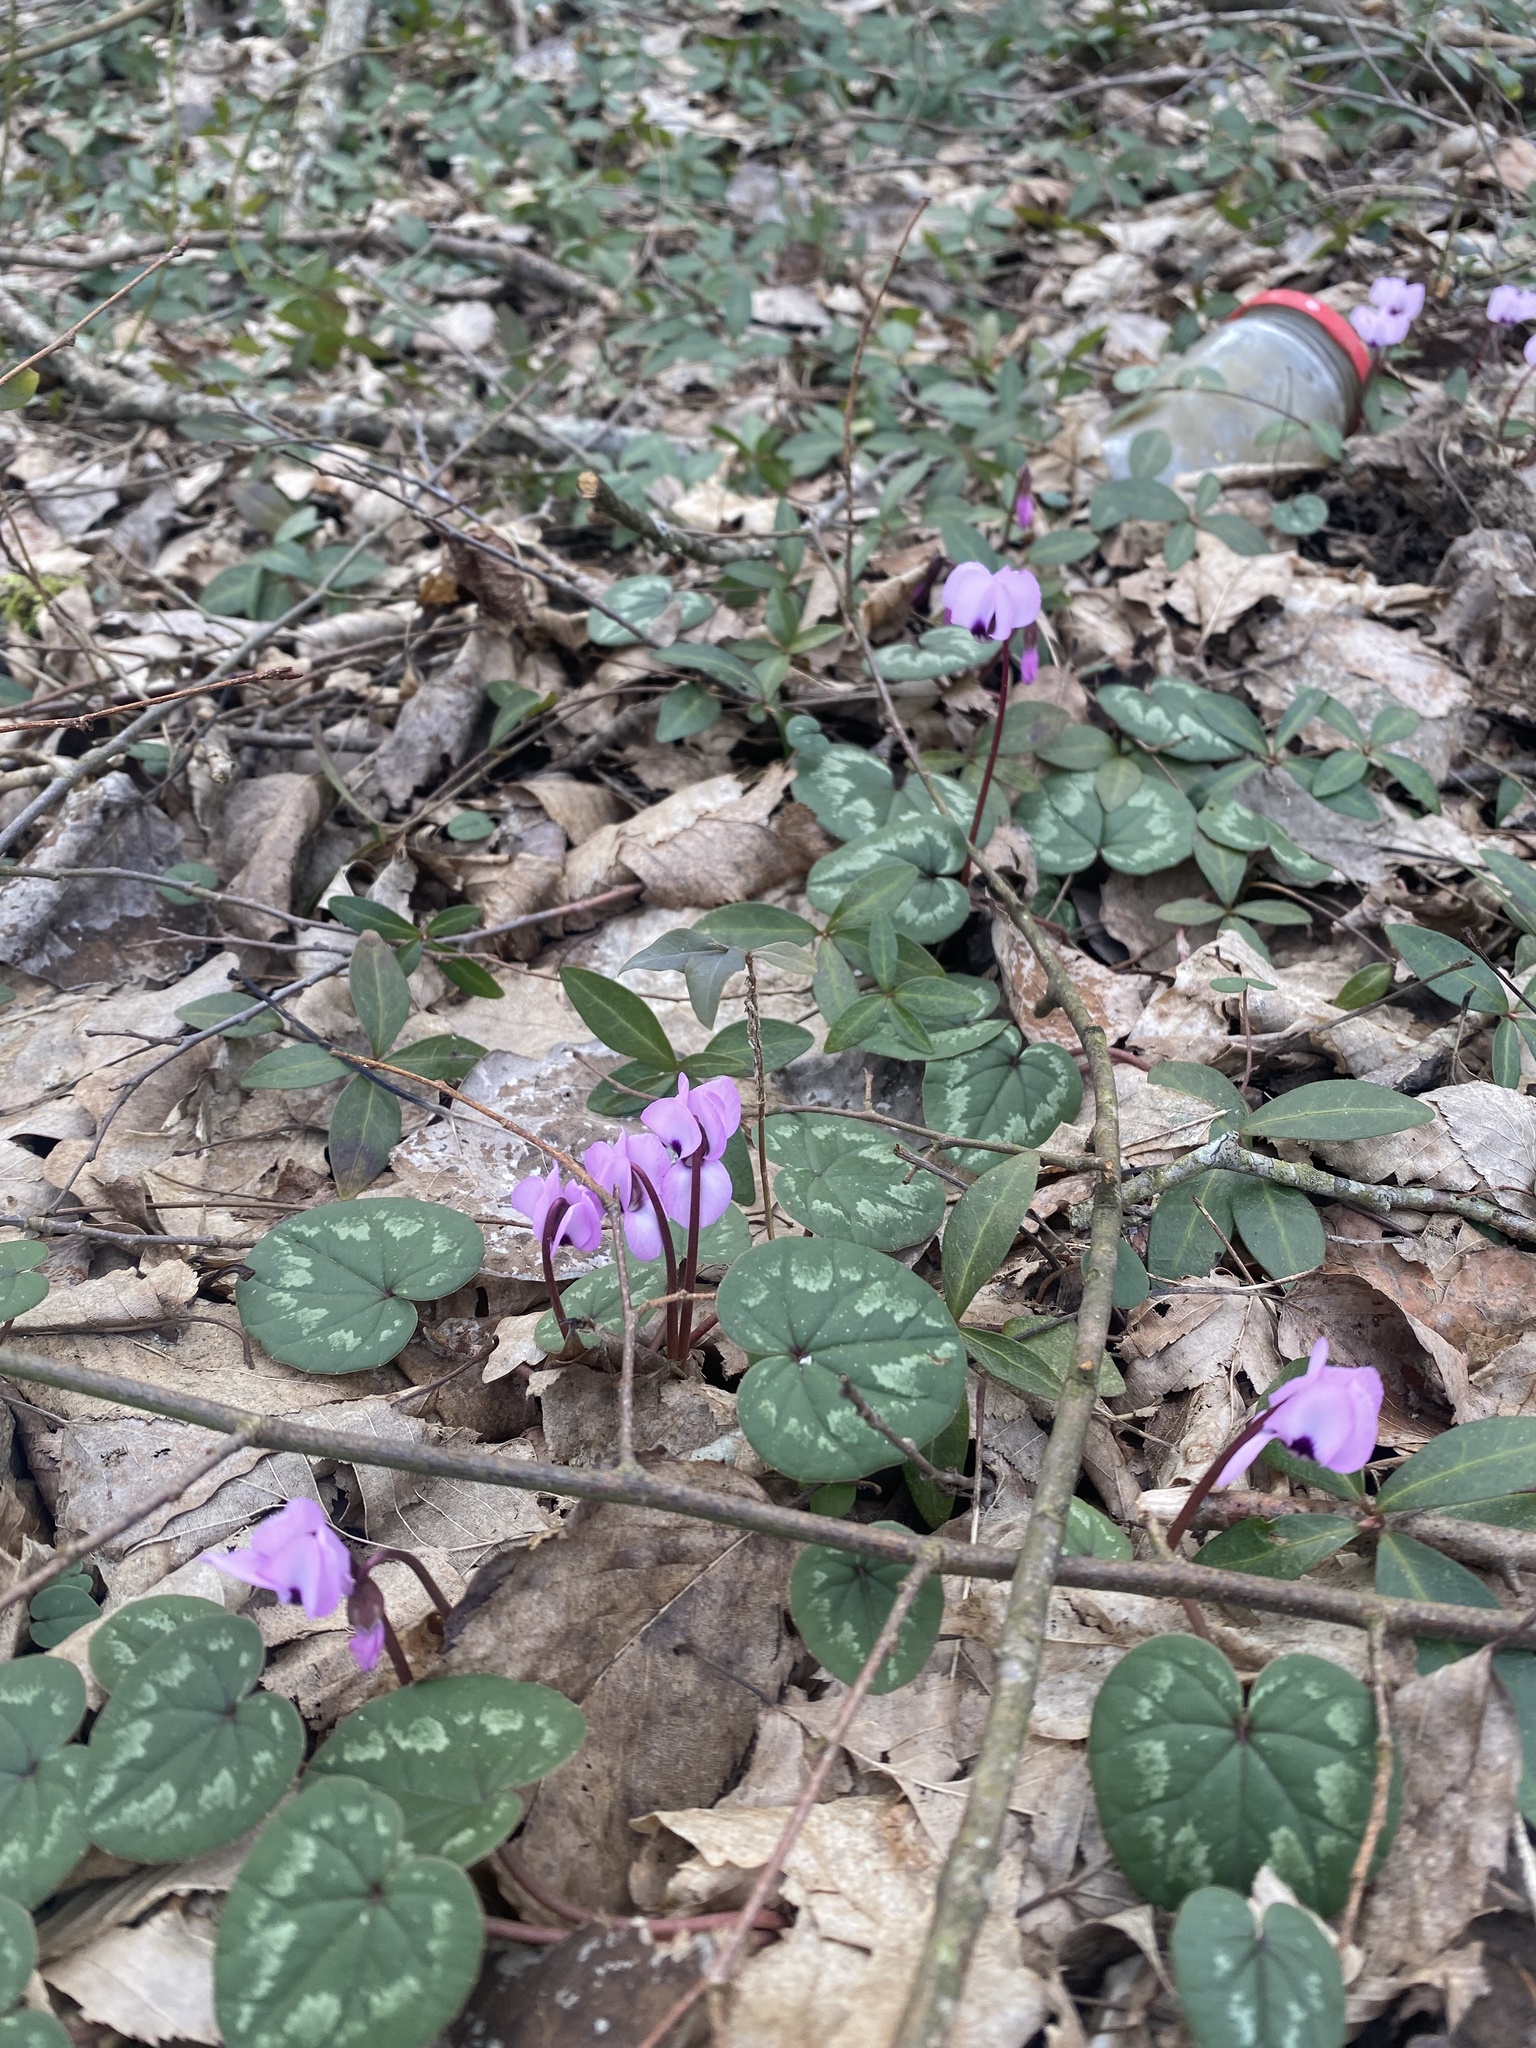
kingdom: Plantae
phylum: Tracheophyta
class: Magnoliopsida
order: Ericales
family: Primulaceae
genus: Cyclamen
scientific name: Cyclamen coum
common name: Eastern sowbread
